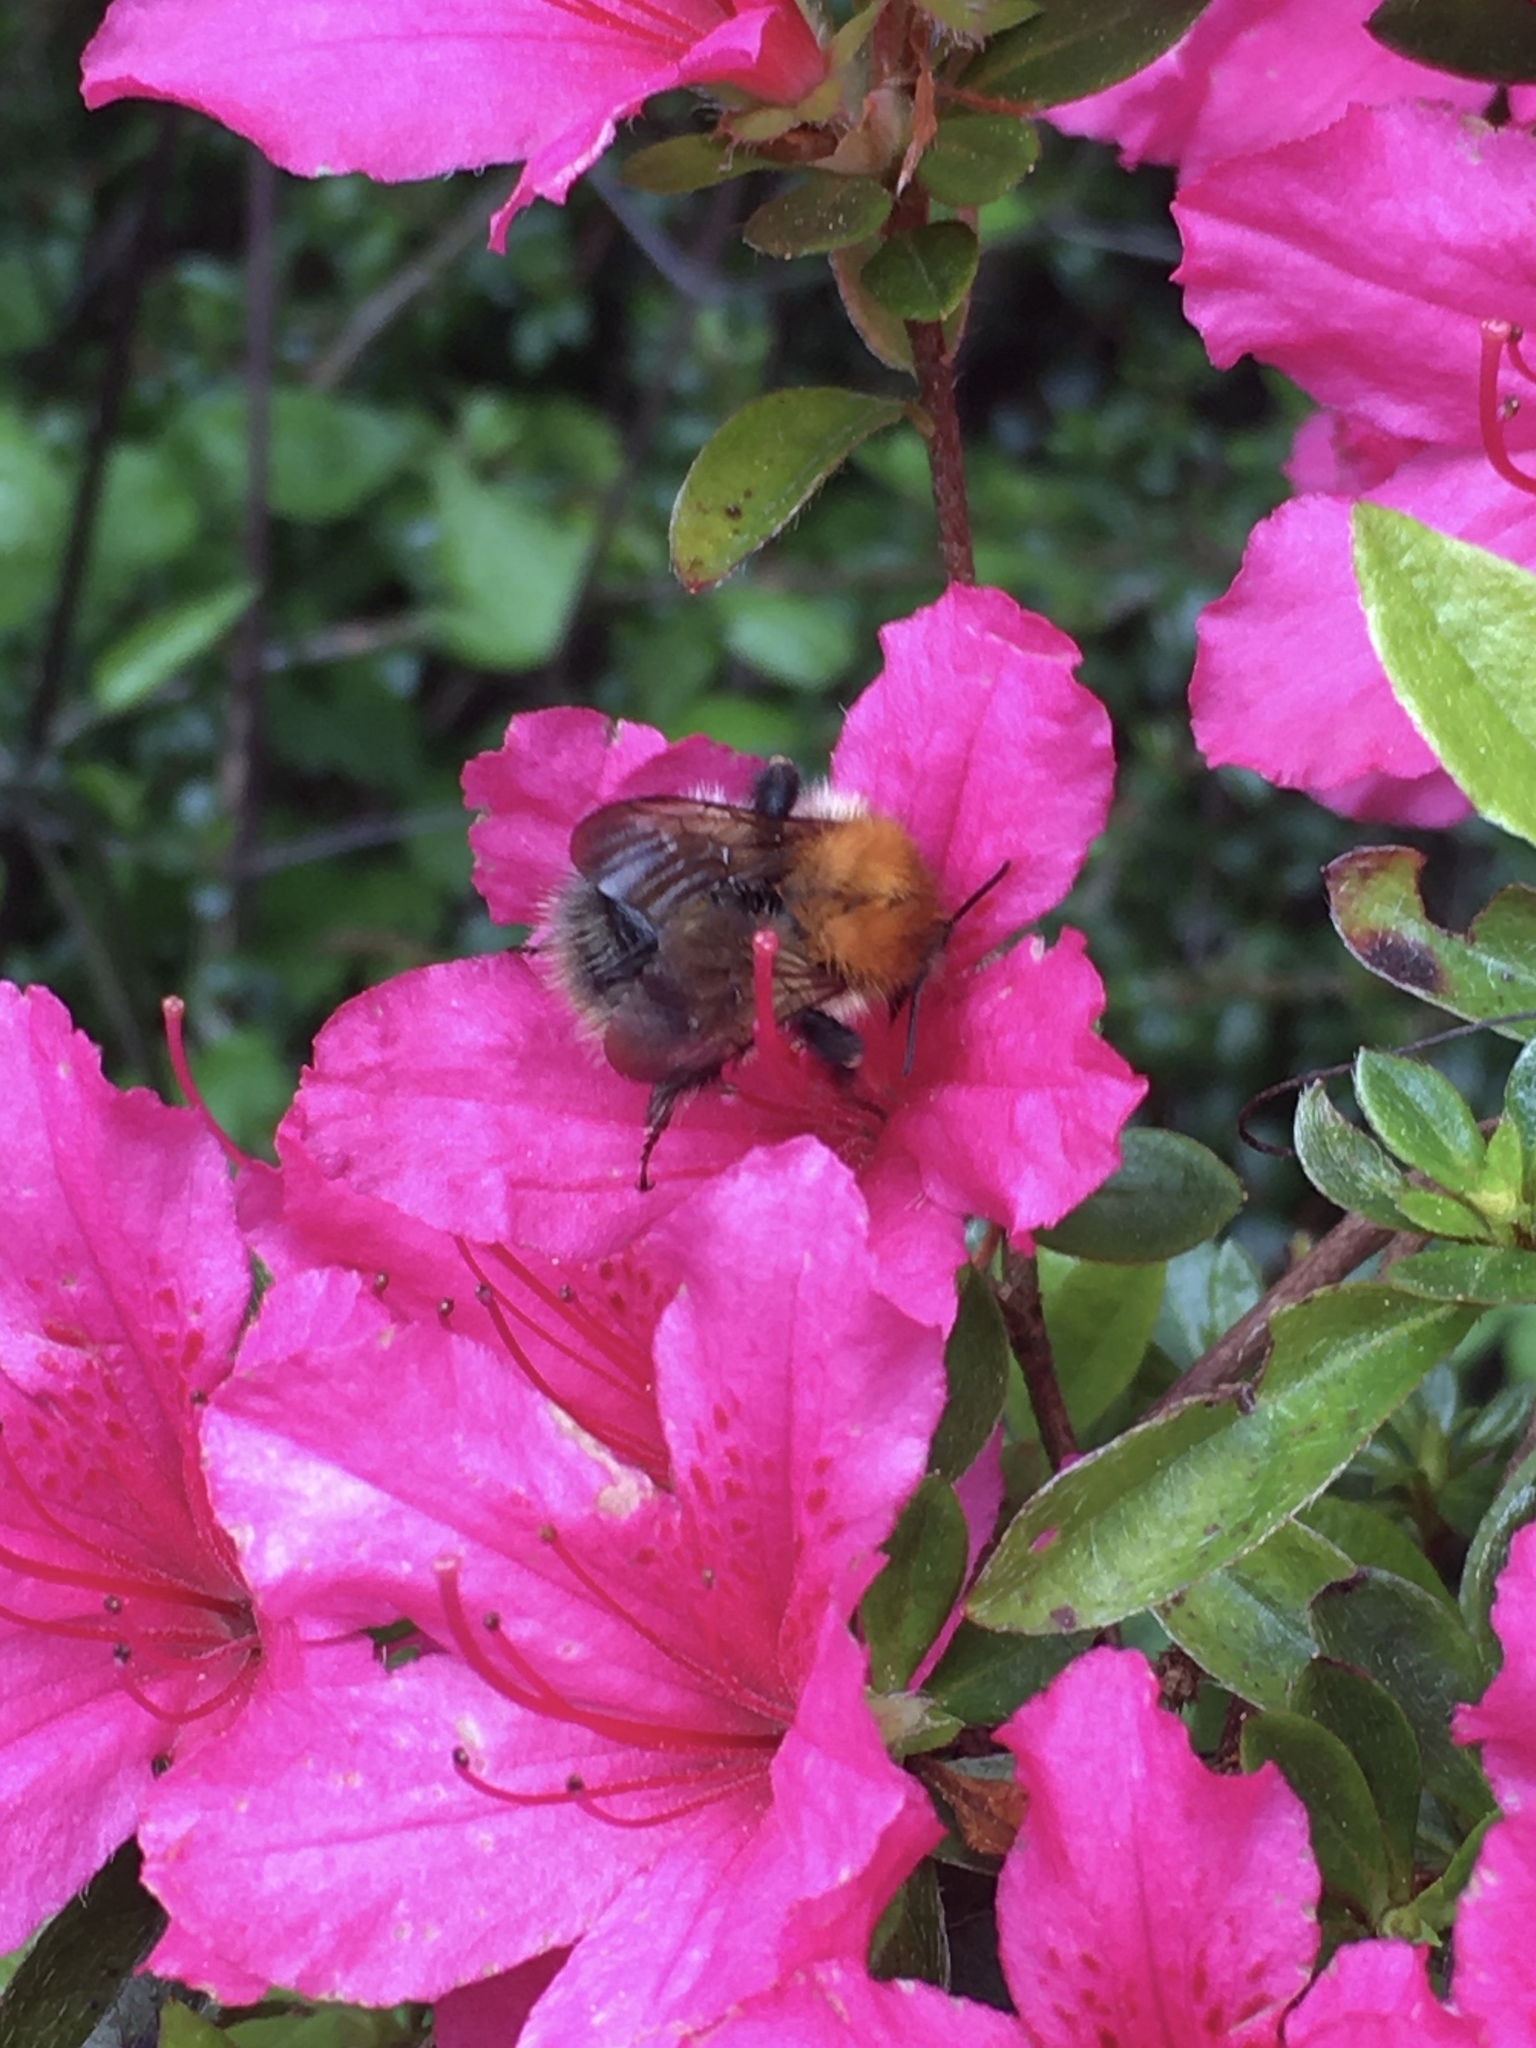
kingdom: Animalia
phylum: Arthropoda
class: Insecta
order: Hymenoptera
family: Apidae
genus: Bombus
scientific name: Bombus pascuorum
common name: Common carder bee
